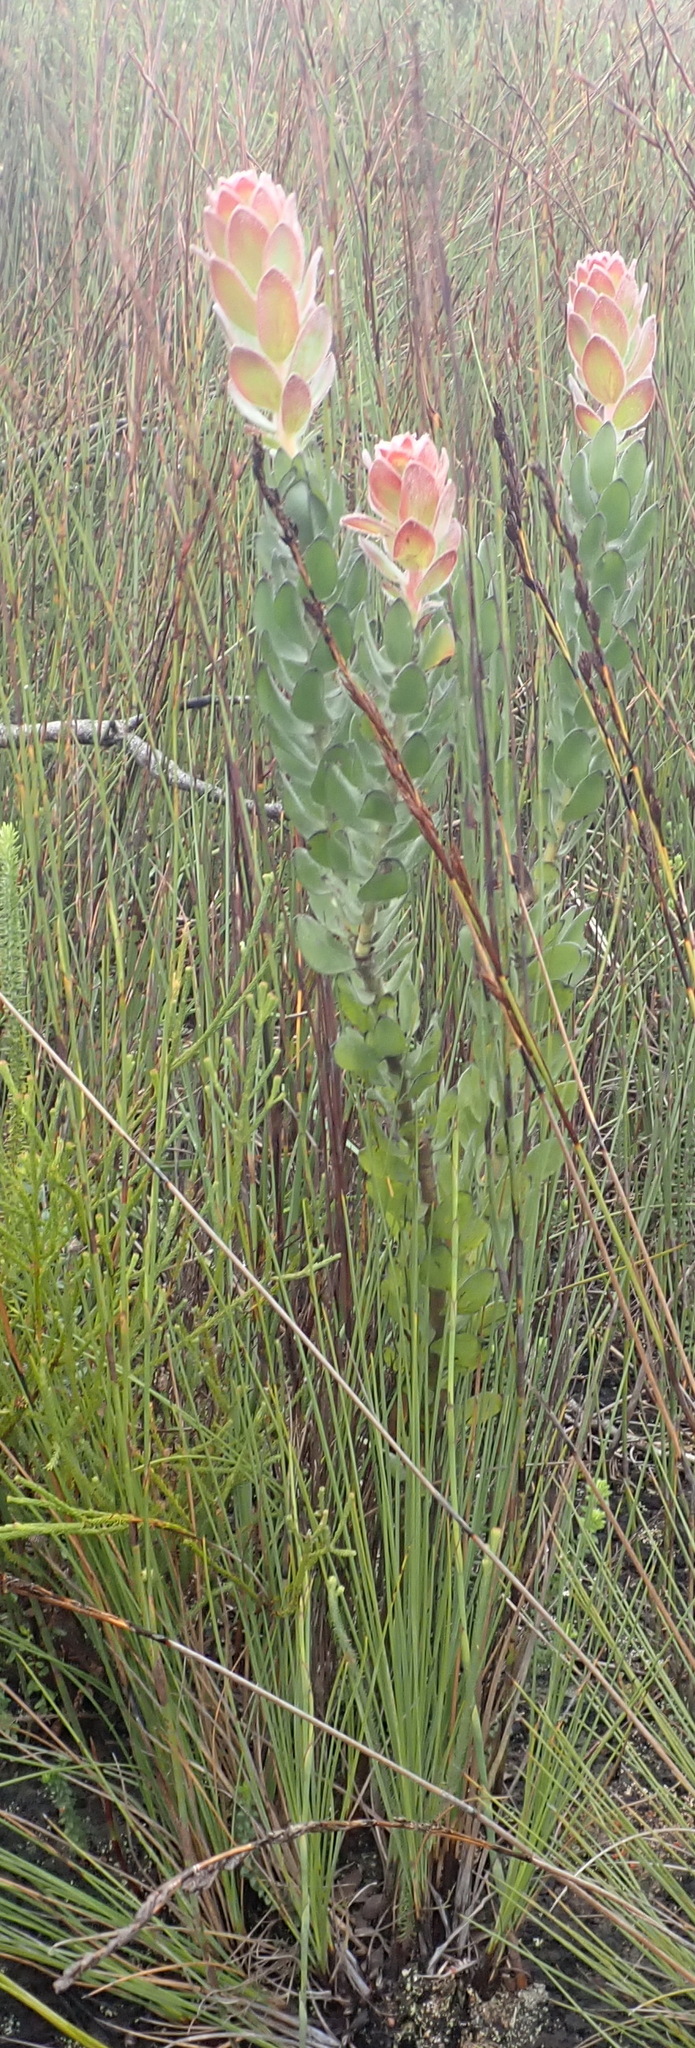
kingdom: Plantae
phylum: Tracheophyta
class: Magnoliopsida
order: Proteales
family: Proteaceae
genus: Mimetes
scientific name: Mimetes pauciflora
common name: Three-flowered pagoda
